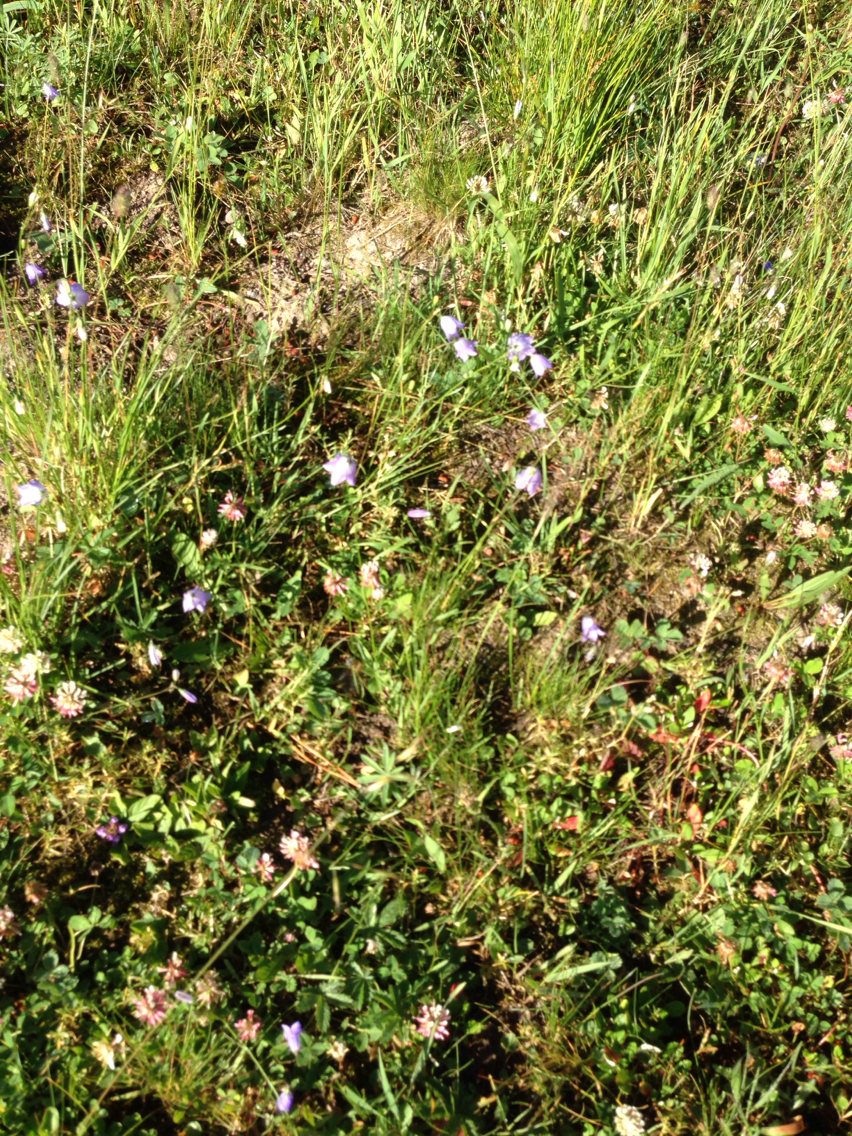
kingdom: Plantae
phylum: Tracheophyta
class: Magnoliopsida
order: Asterales
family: Campanulaceae
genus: Campanula
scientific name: Campanula
